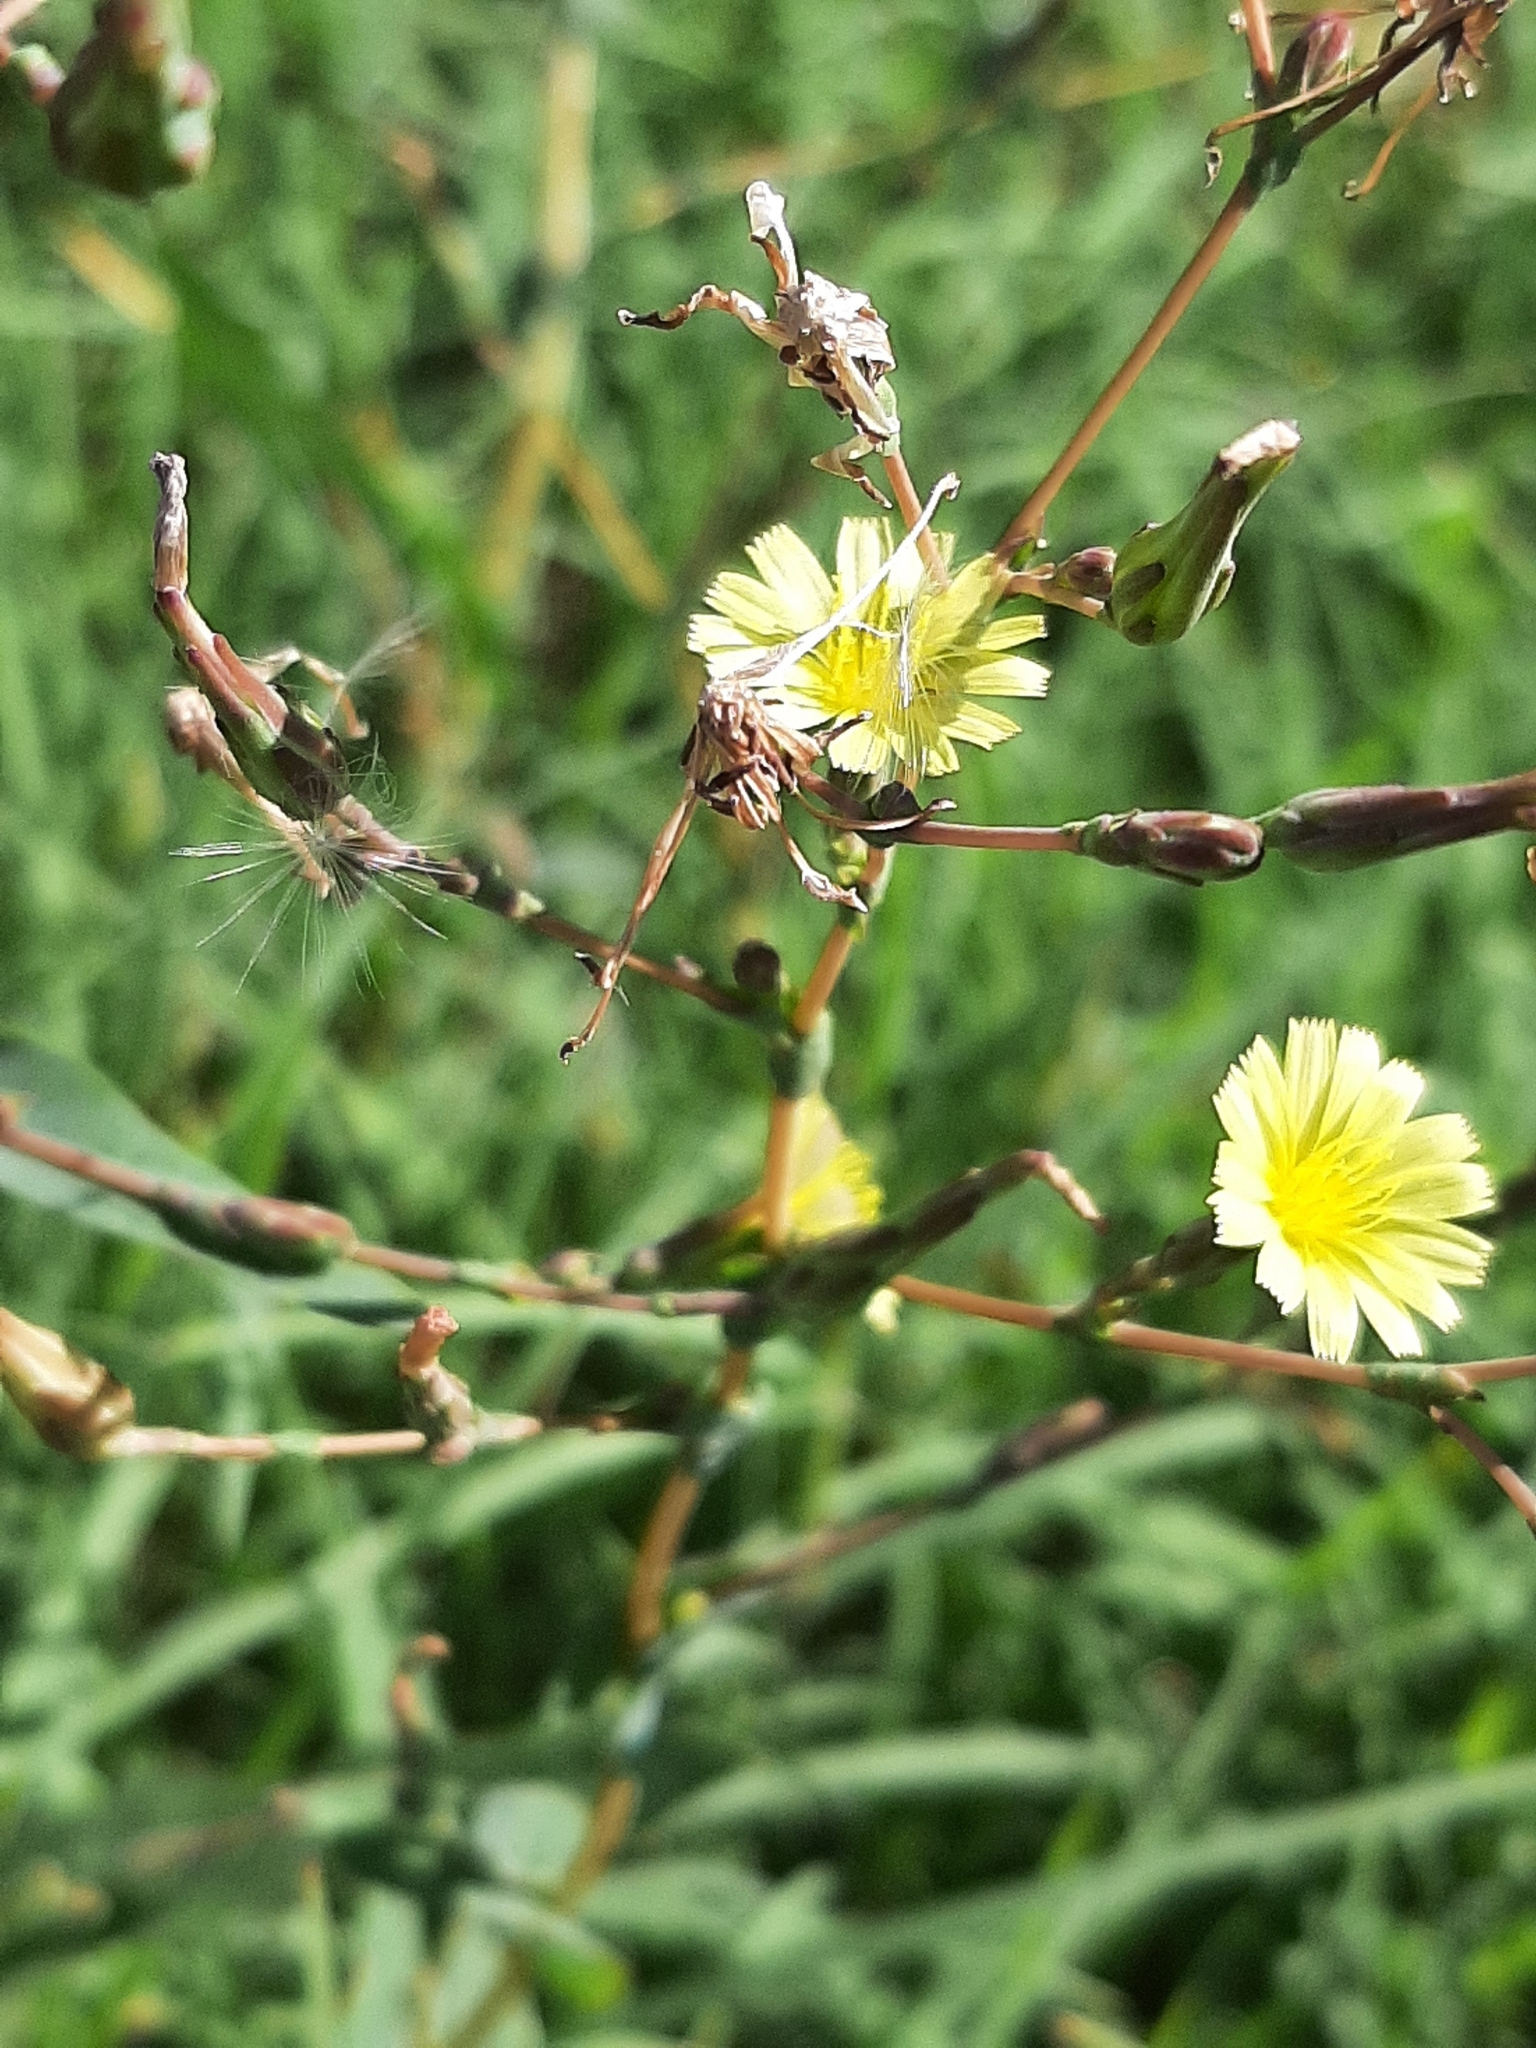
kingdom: Plantae
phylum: Tracheophyta
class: Magnoliopsida
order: Asterales
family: Asteraceae
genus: Lactuca
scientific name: Lactuca serriola
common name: Prickly lettuce
